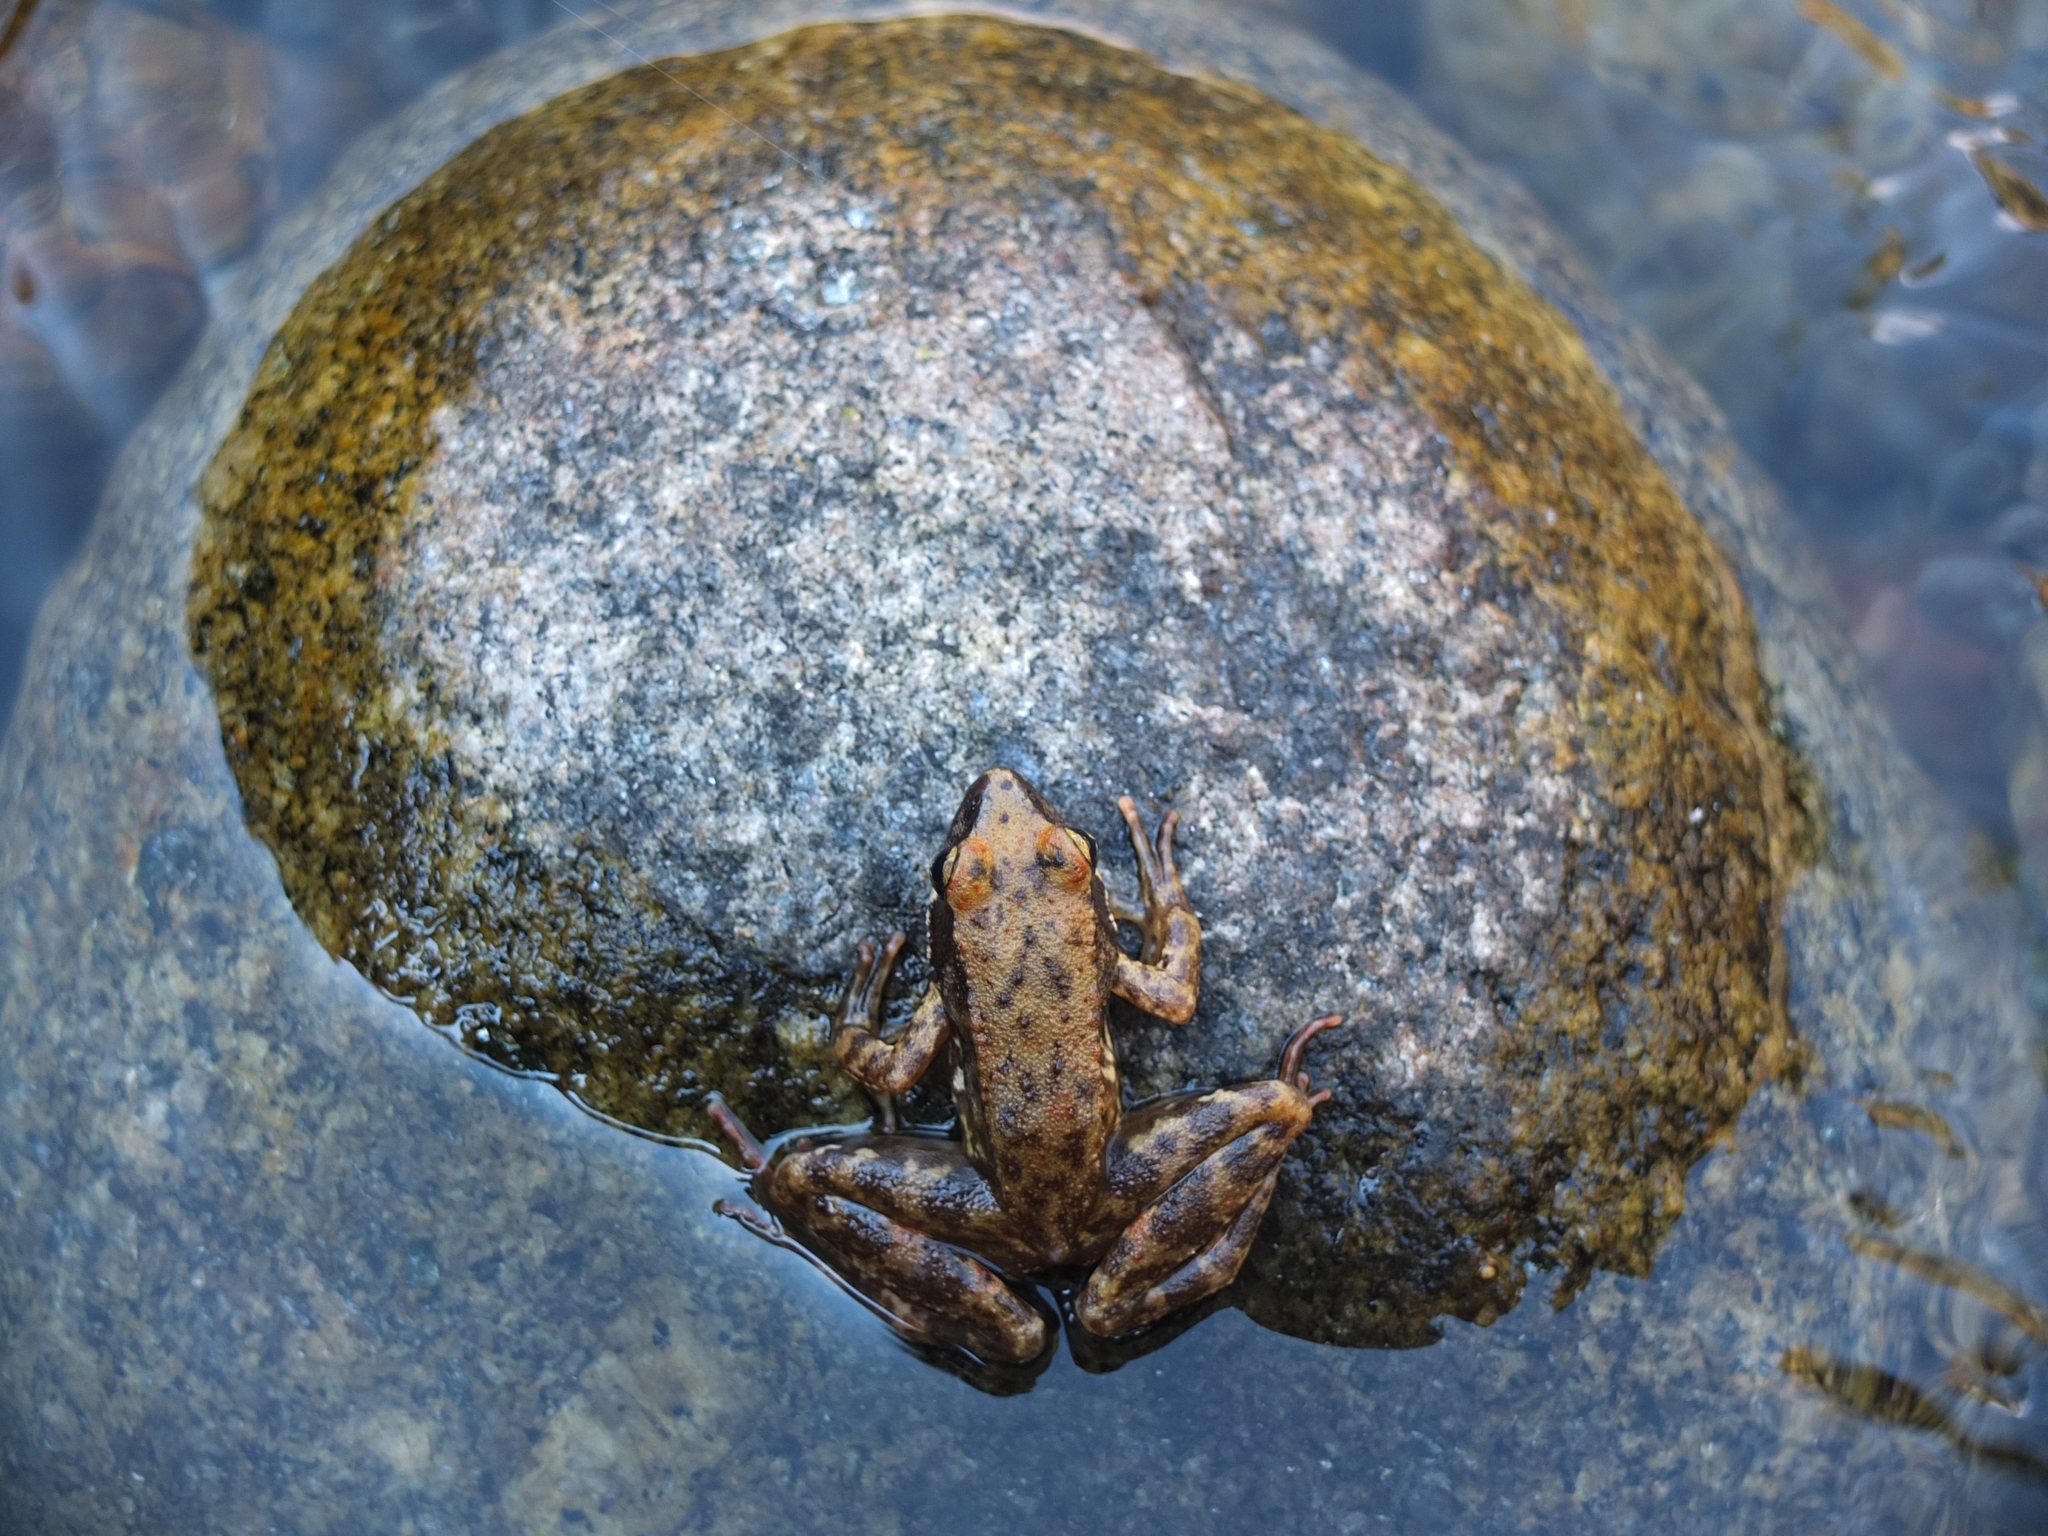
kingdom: Animalia
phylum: Chordata
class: Amphibia
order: Anura
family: Ranidae
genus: Rana
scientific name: Rana iberica
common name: Iberian frog
